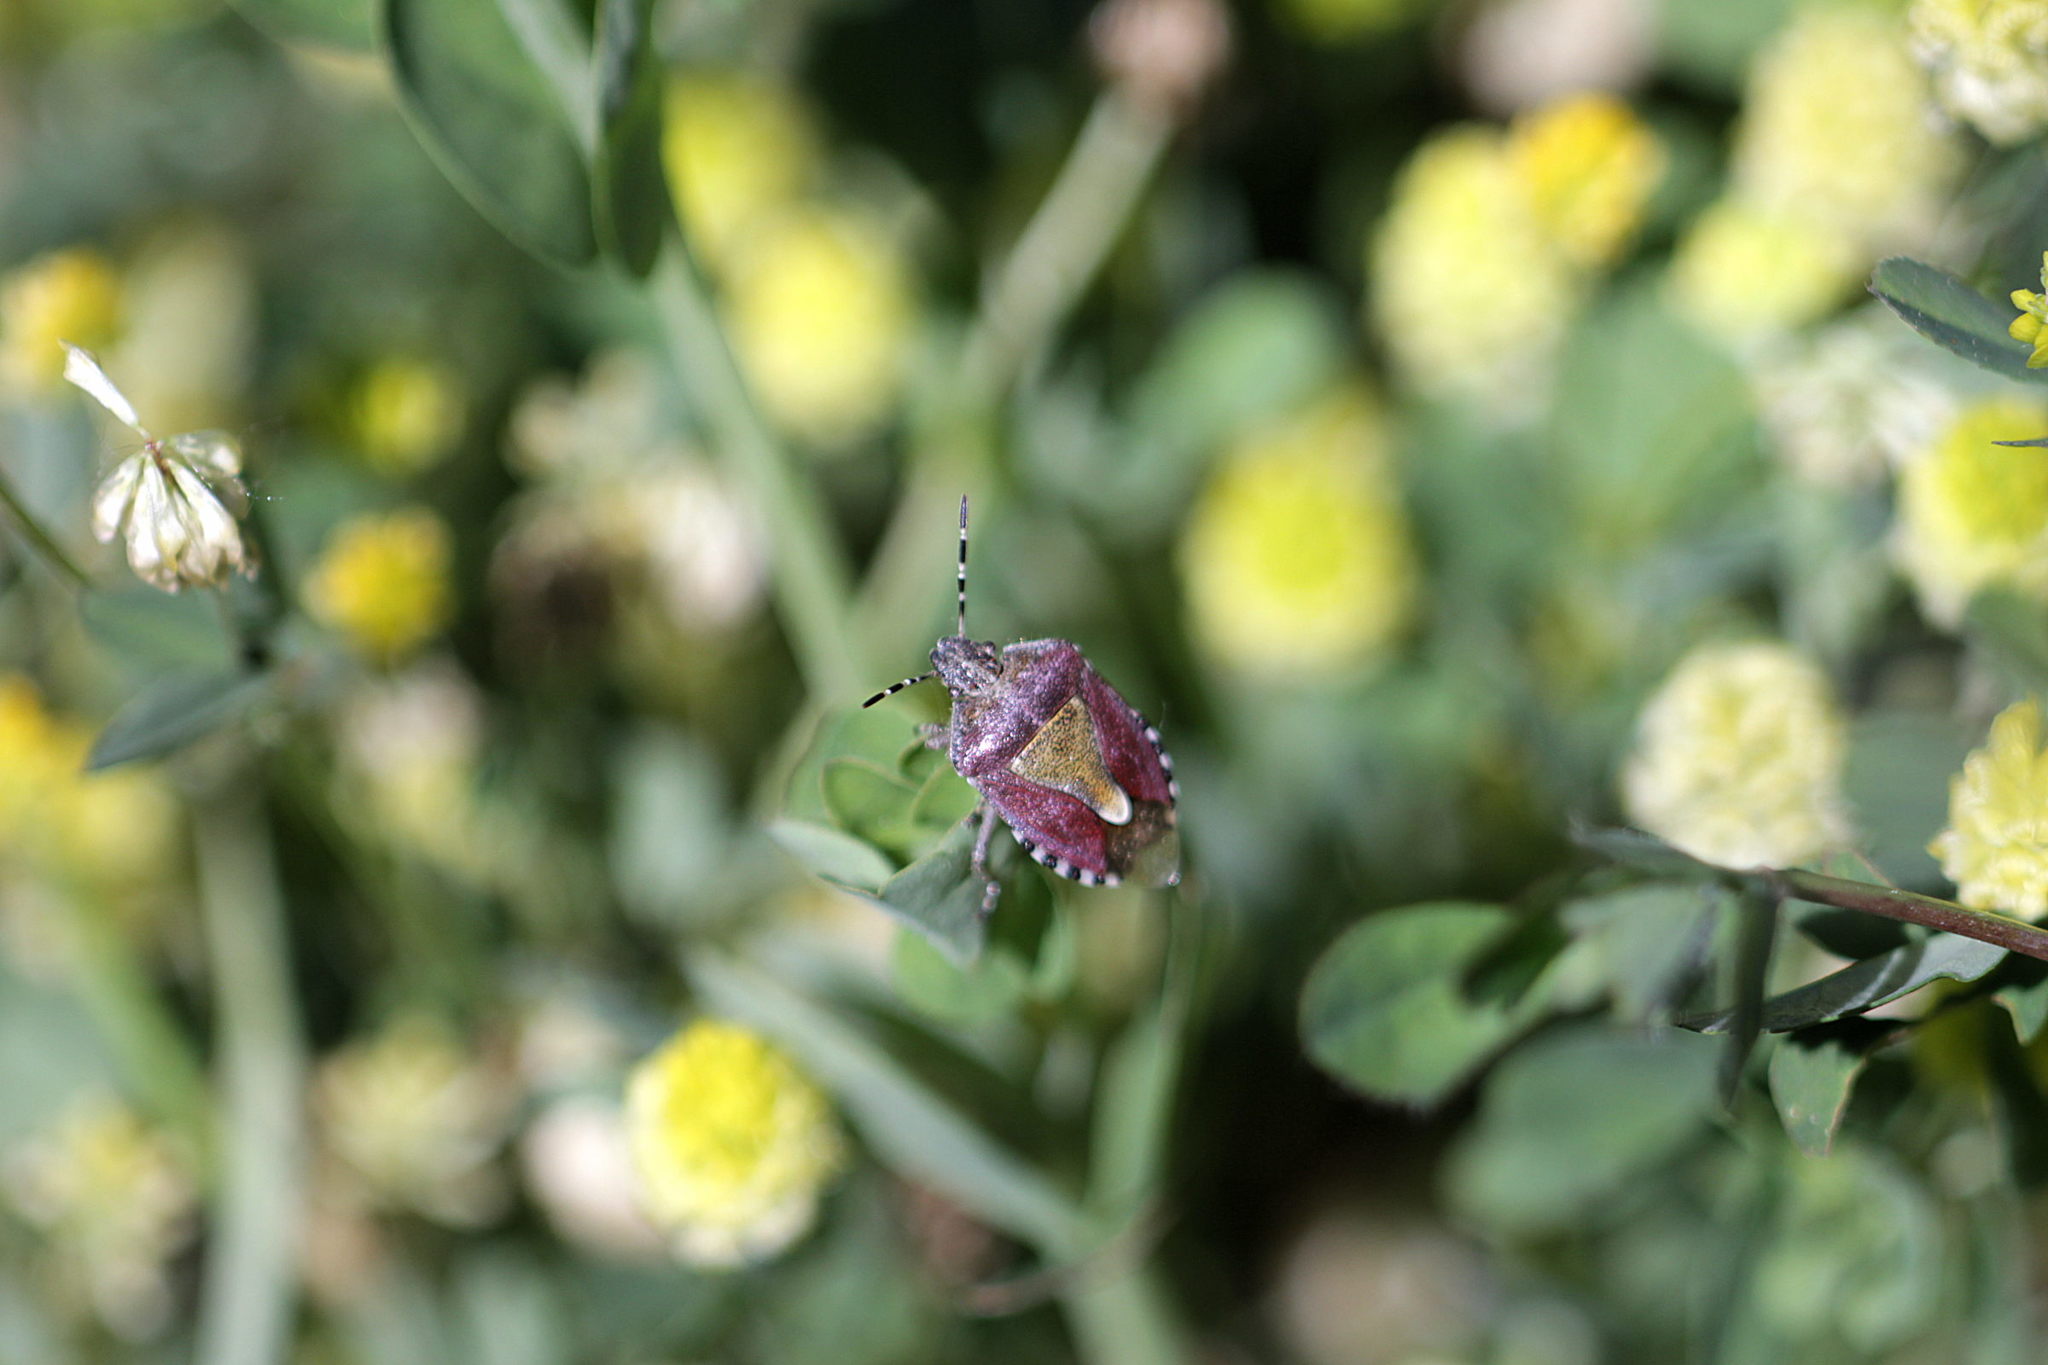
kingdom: Animalia
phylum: Arthropoda
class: Insecta
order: Hemiptera
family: Pentatomidae
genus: Dolycoris
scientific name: Dolycoris baccarum
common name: Sloe bug
